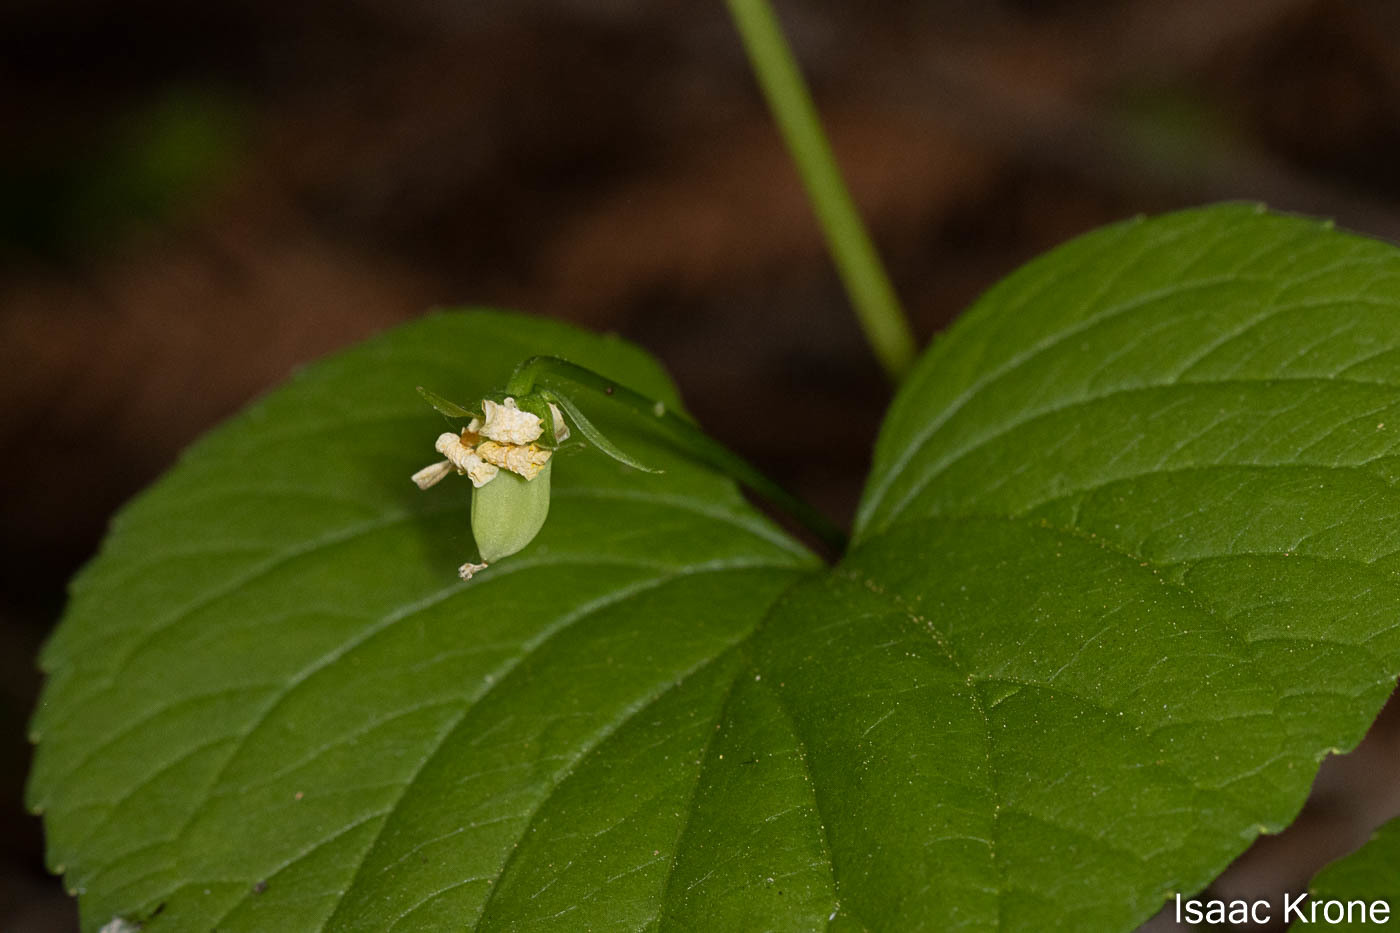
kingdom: Plantae
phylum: Tracheophyta
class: Magnoliopsida
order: Malpighiales
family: Violaceae
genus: Viola
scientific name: Viola glabella
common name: Stream violet
